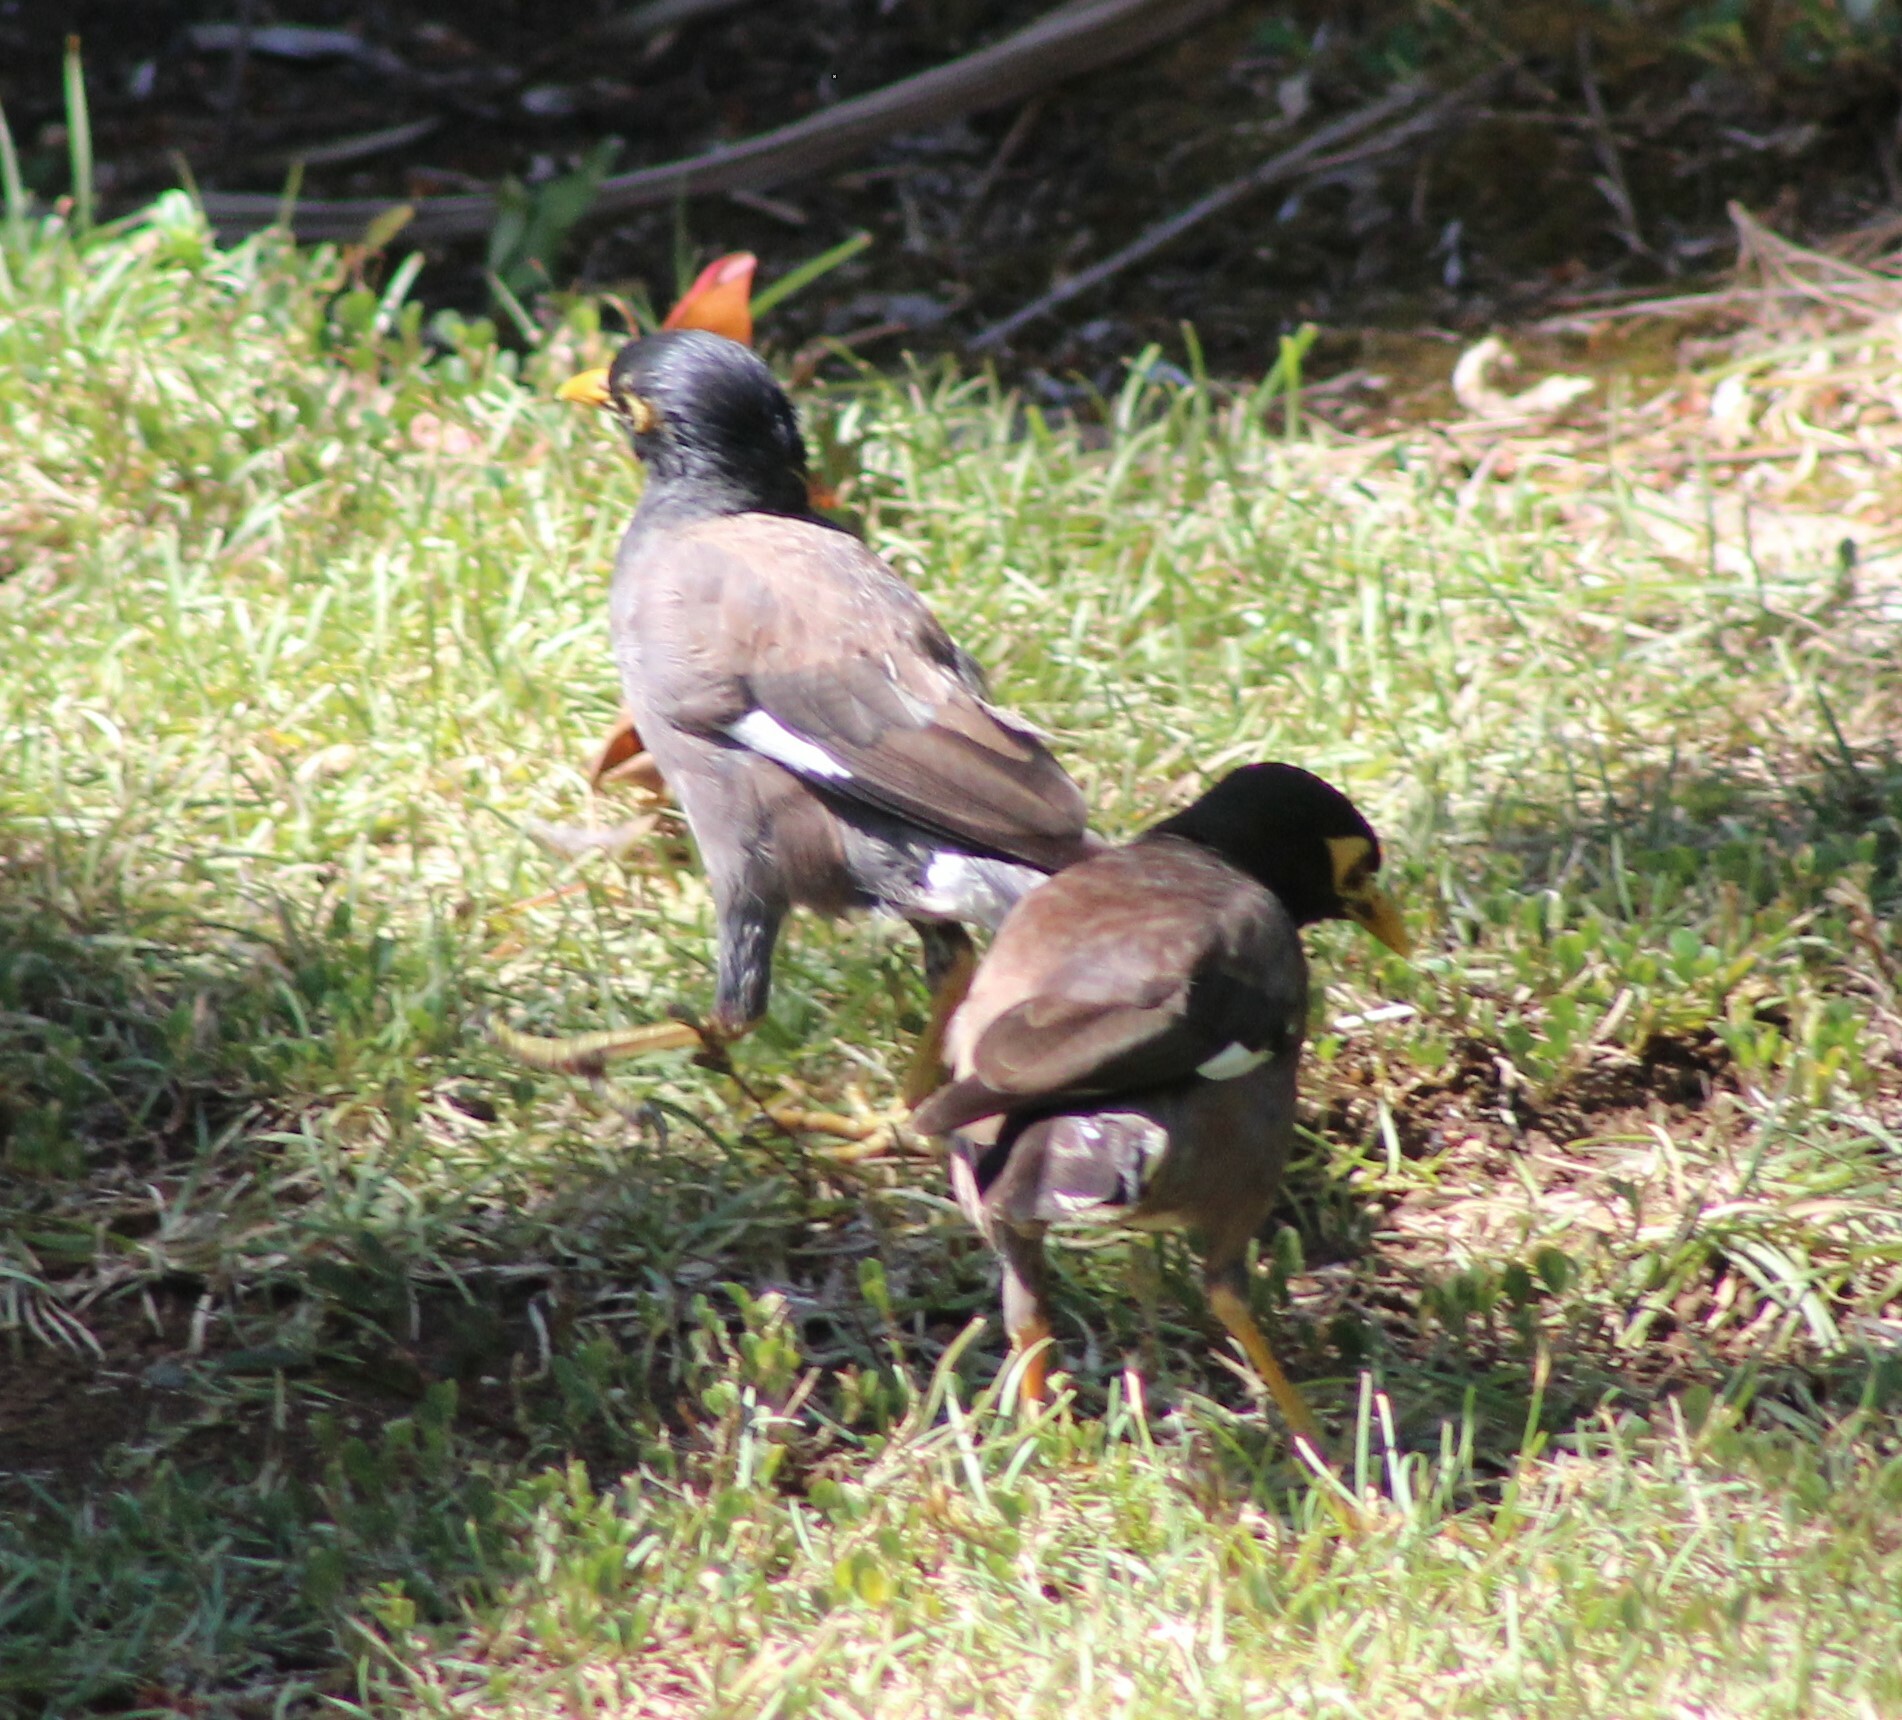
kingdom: Animalia
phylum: Chordata
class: Aves
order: Passeriformes
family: Sturnidae
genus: Acridotheres
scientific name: Acridotheres tristis
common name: Common myna
